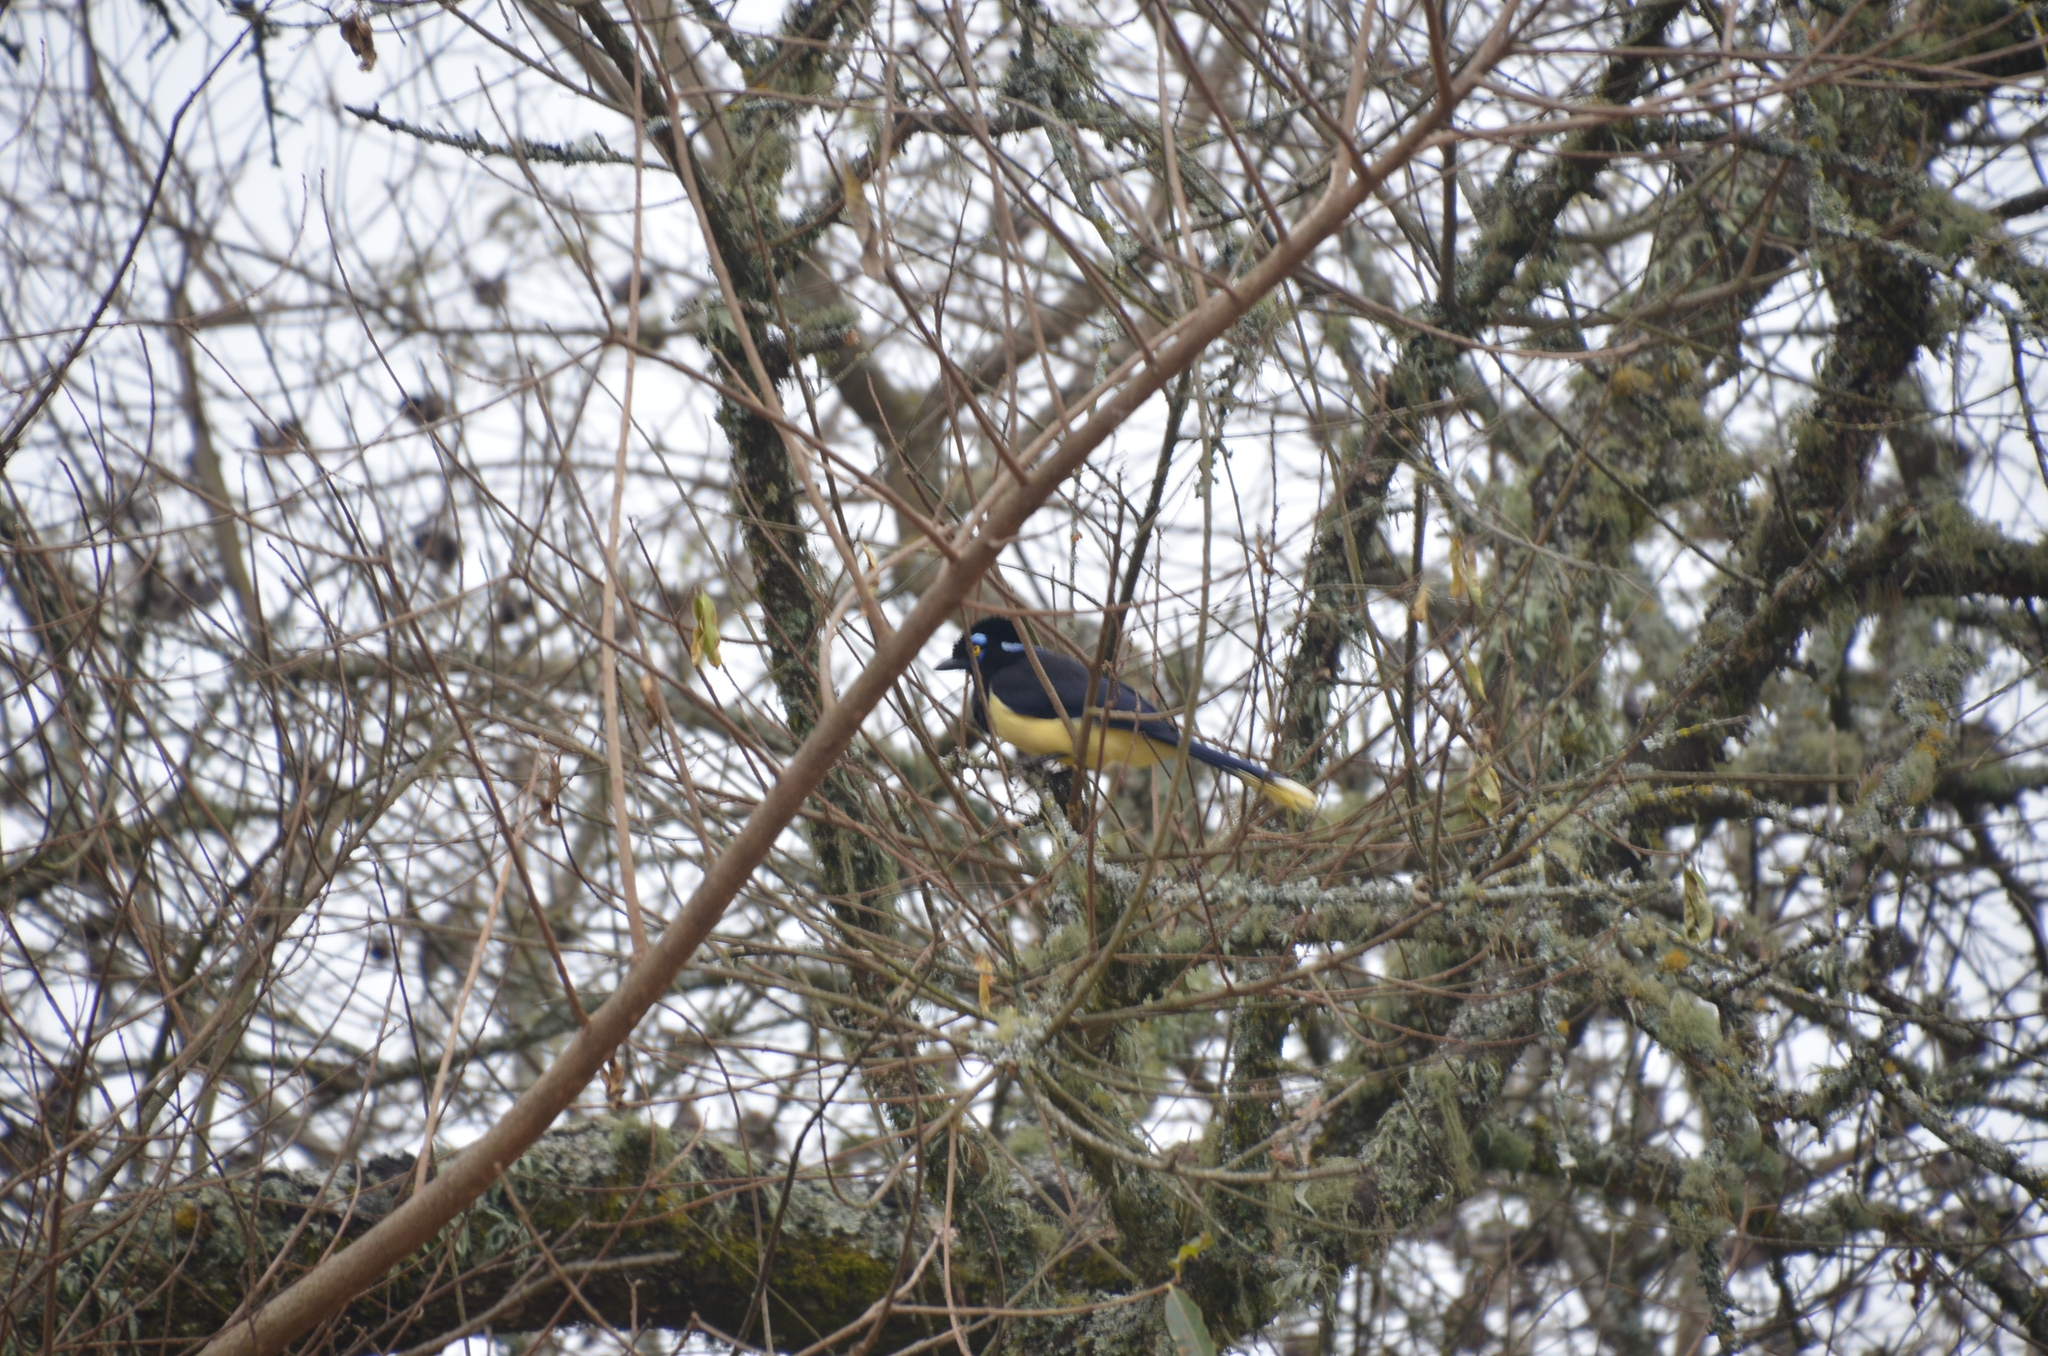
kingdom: Animalia
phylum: Chordata
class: Aves
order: Passeriformes
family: Corvidae
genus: Cyanocorax
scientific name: Cyanocorax chrysops
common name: Plush-crested jay
